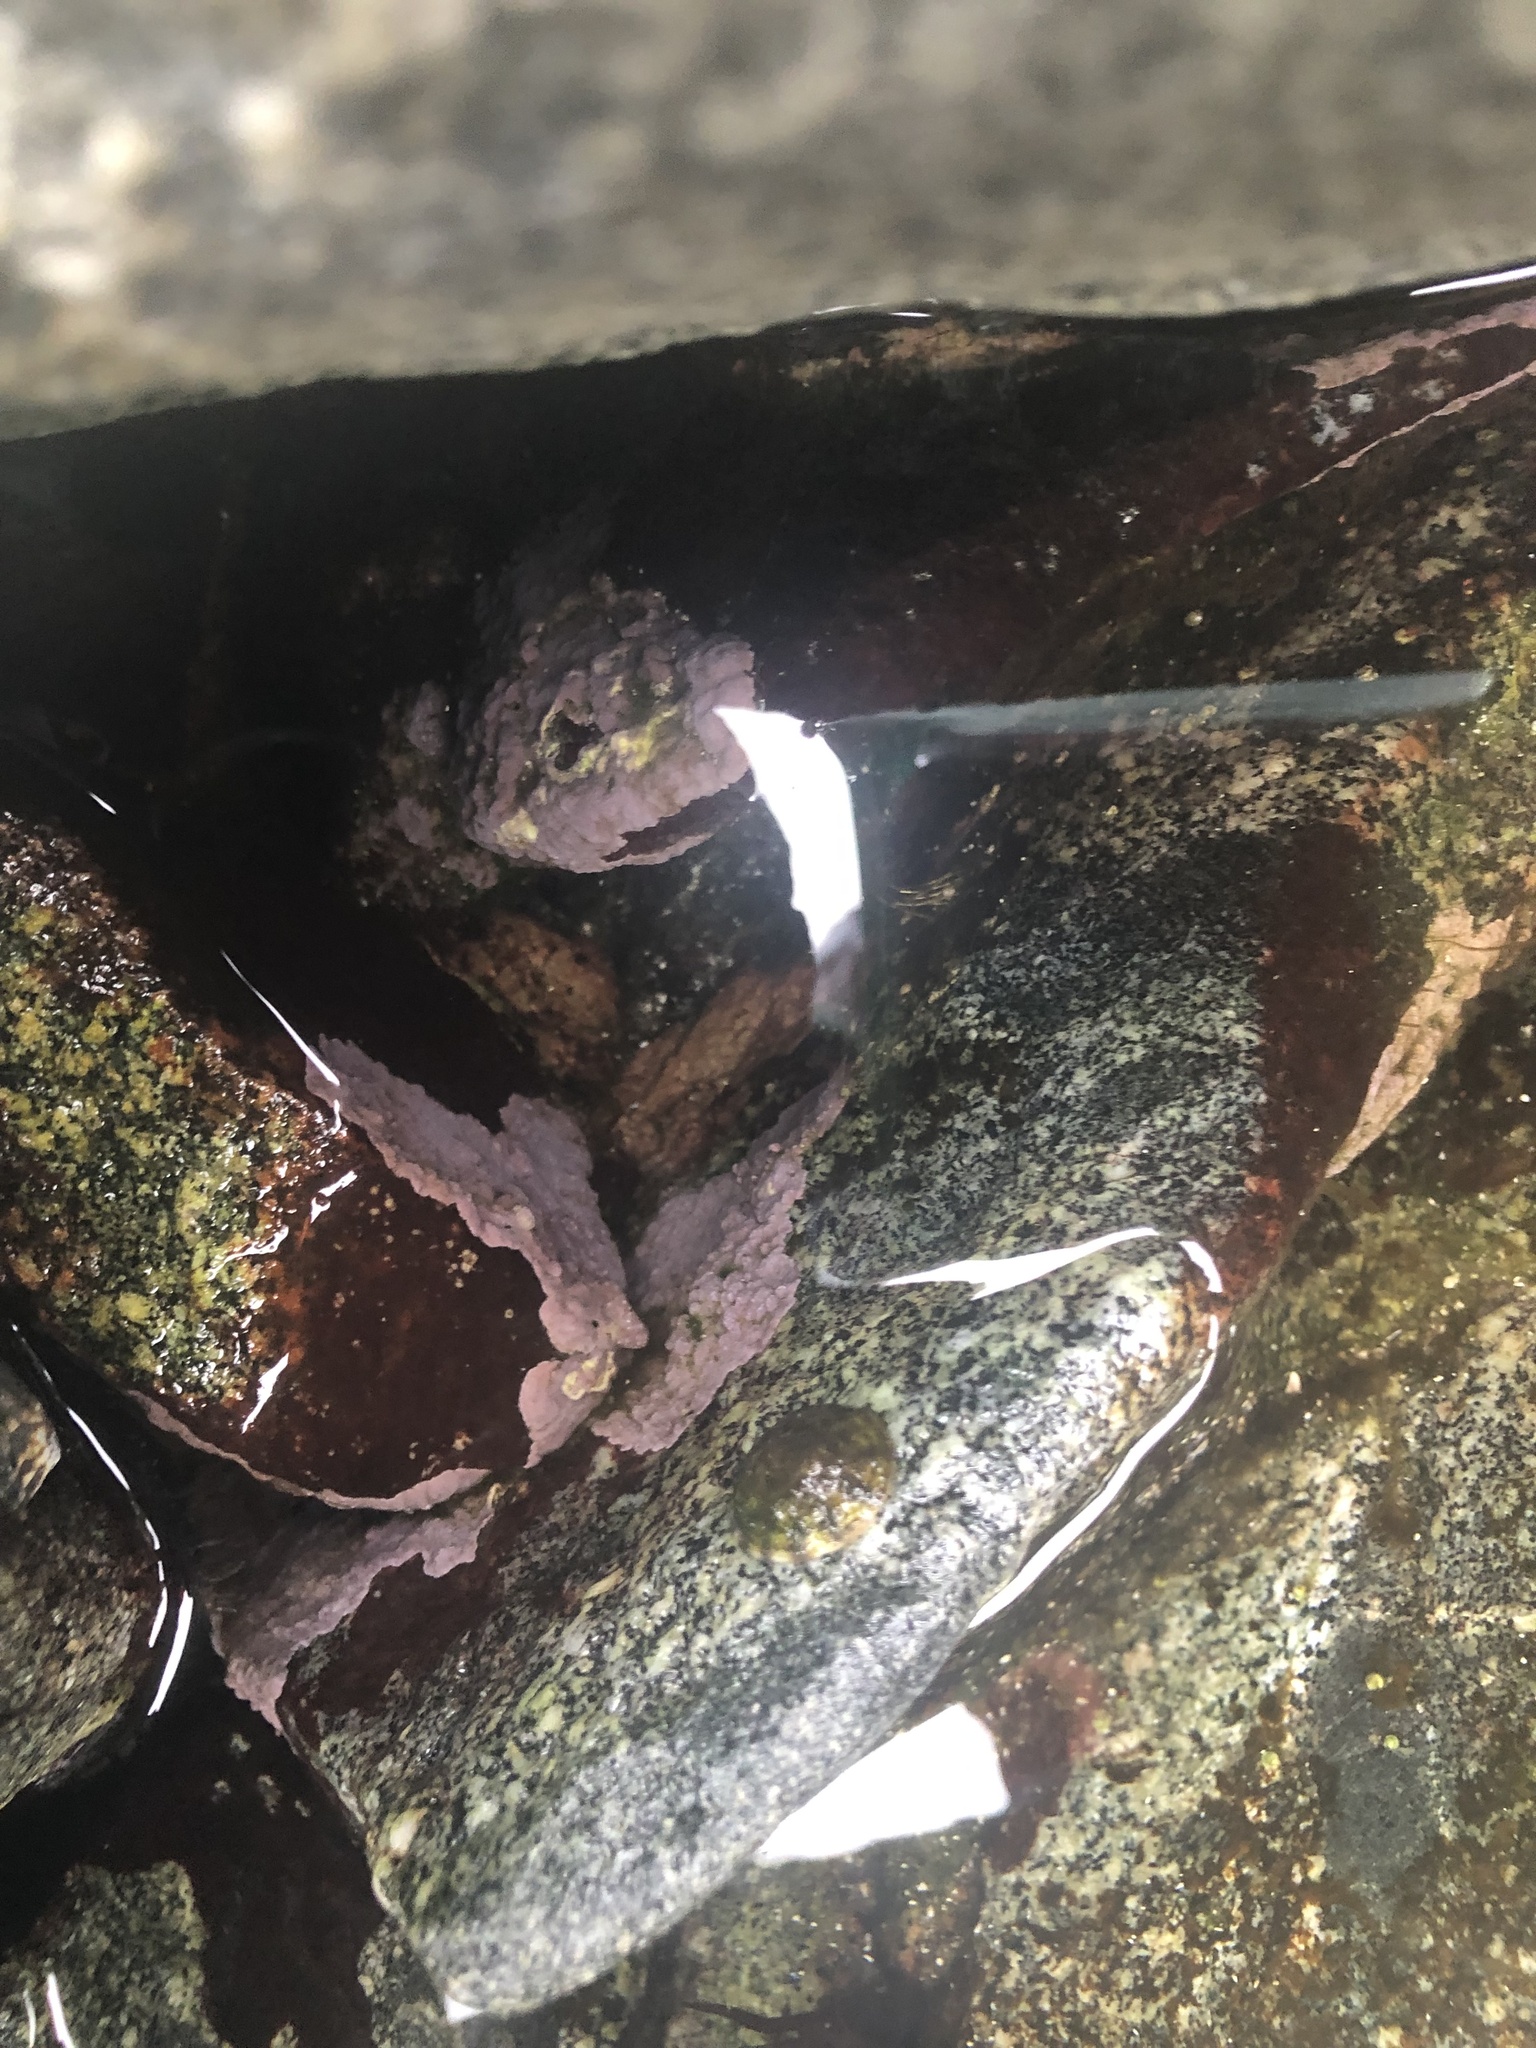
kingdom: Plantae
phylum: Rhodophyta
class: Florideophyceae
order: Corallinales
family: Corallinaceae
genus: Chamberlainium
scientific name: Chamberlainium tumidum
